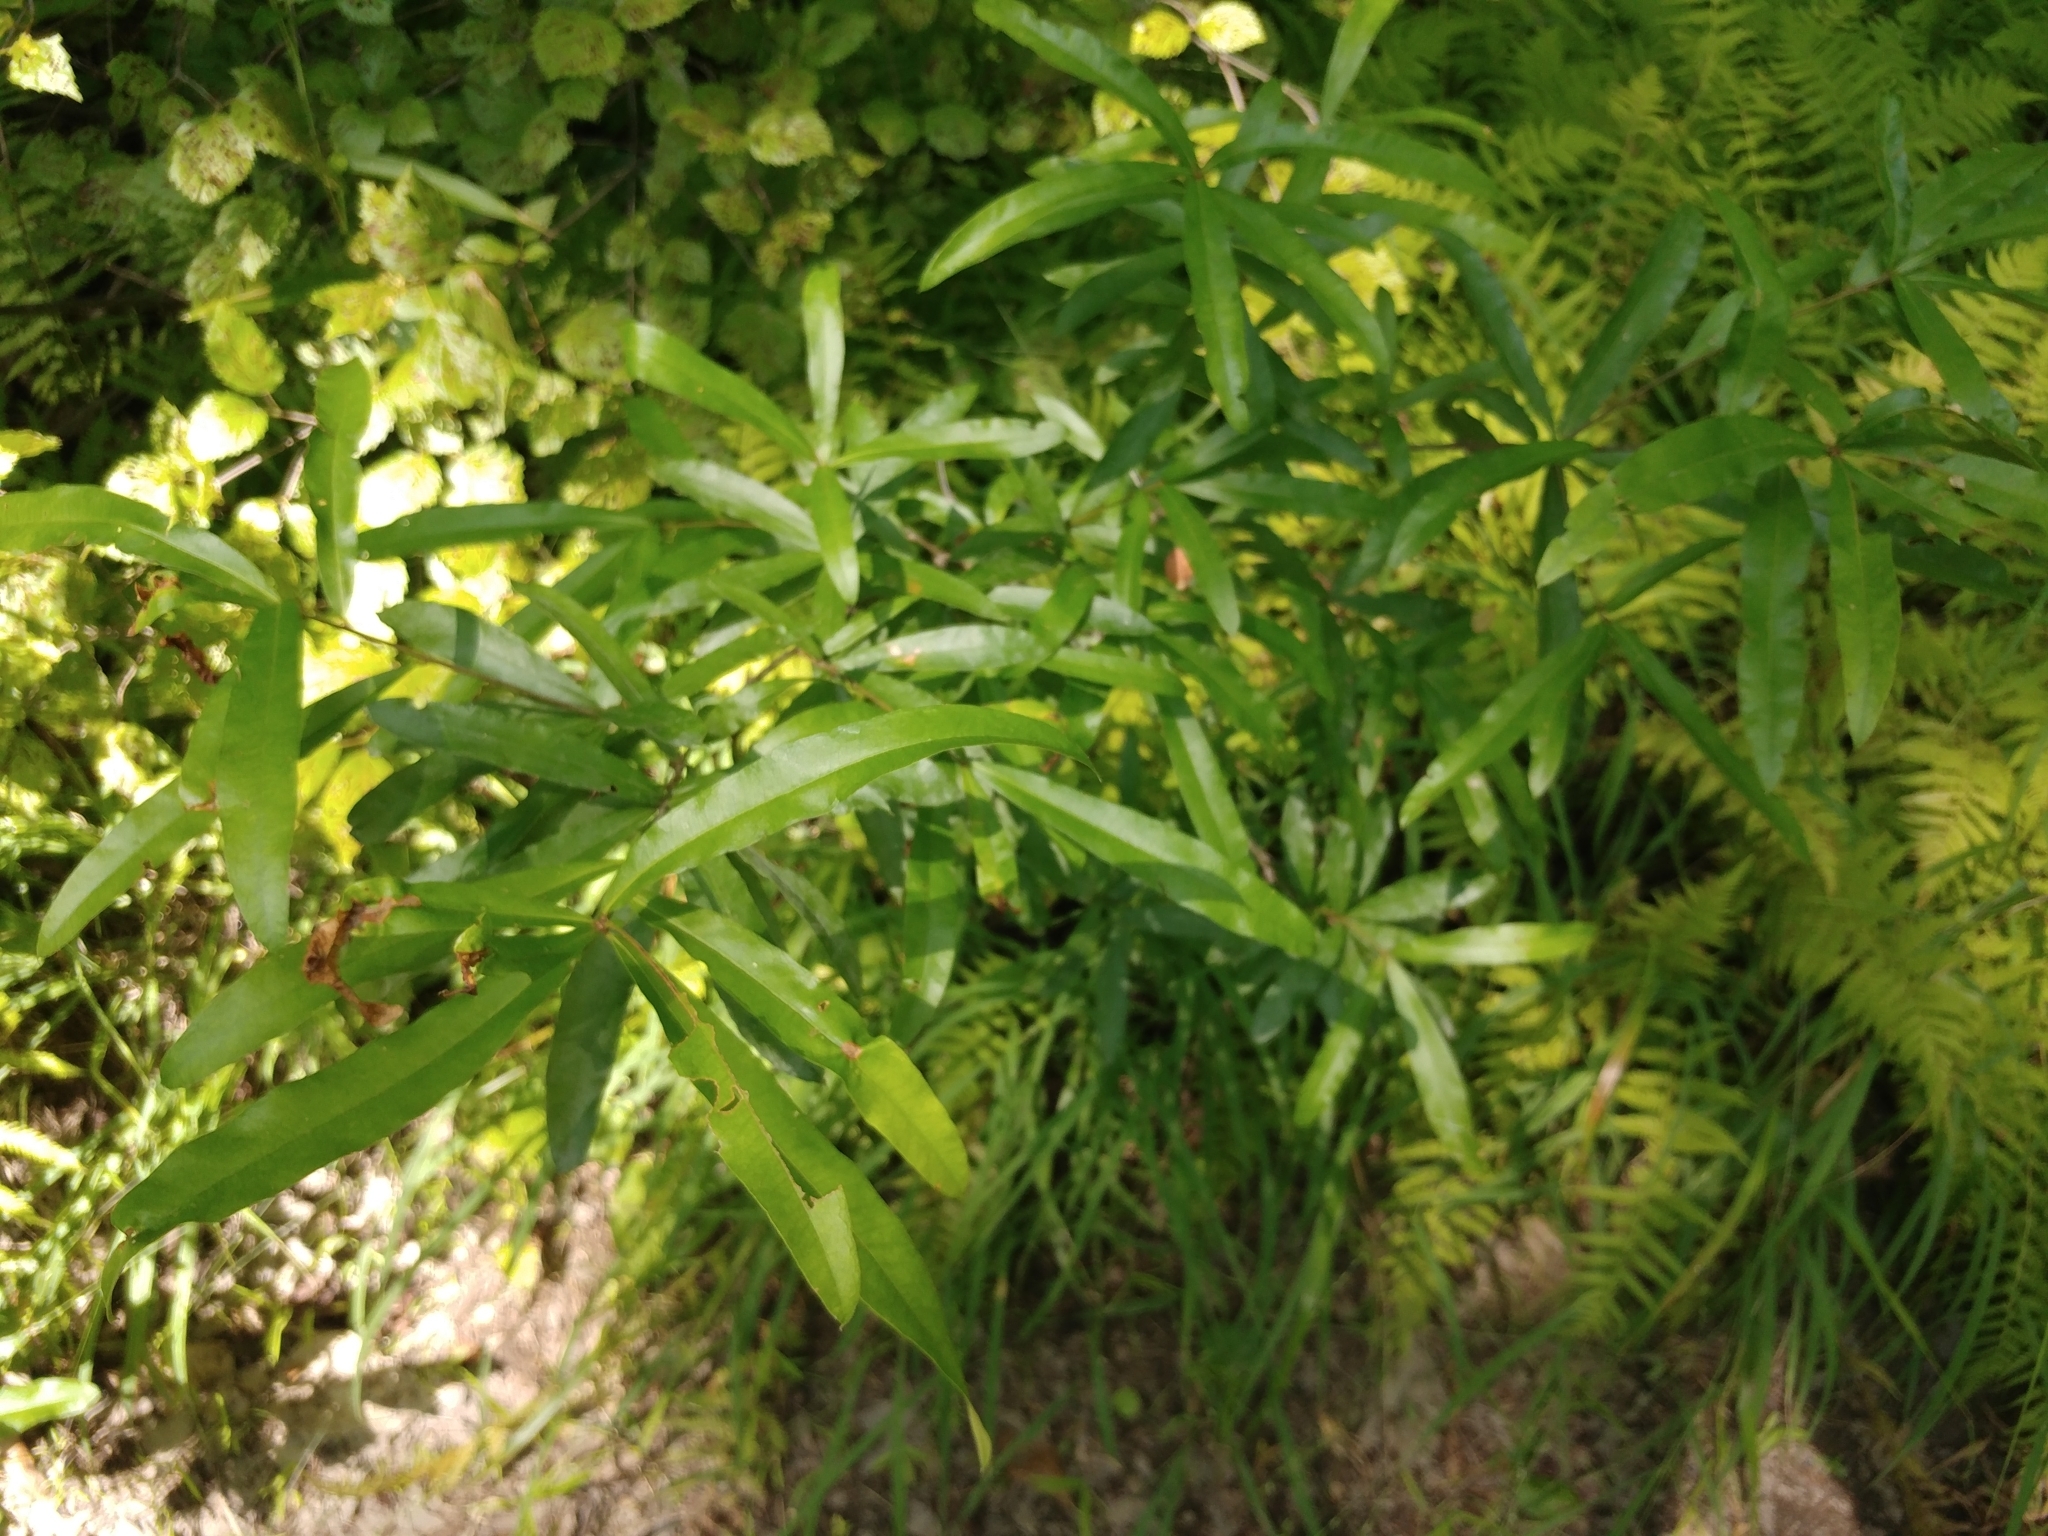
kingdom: Plantae
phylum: Tracheophyta
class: Magnoliopsida
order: Fagales
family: Fagaceae
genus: Quercus
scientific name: Quercus phellos
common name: Willow oak
